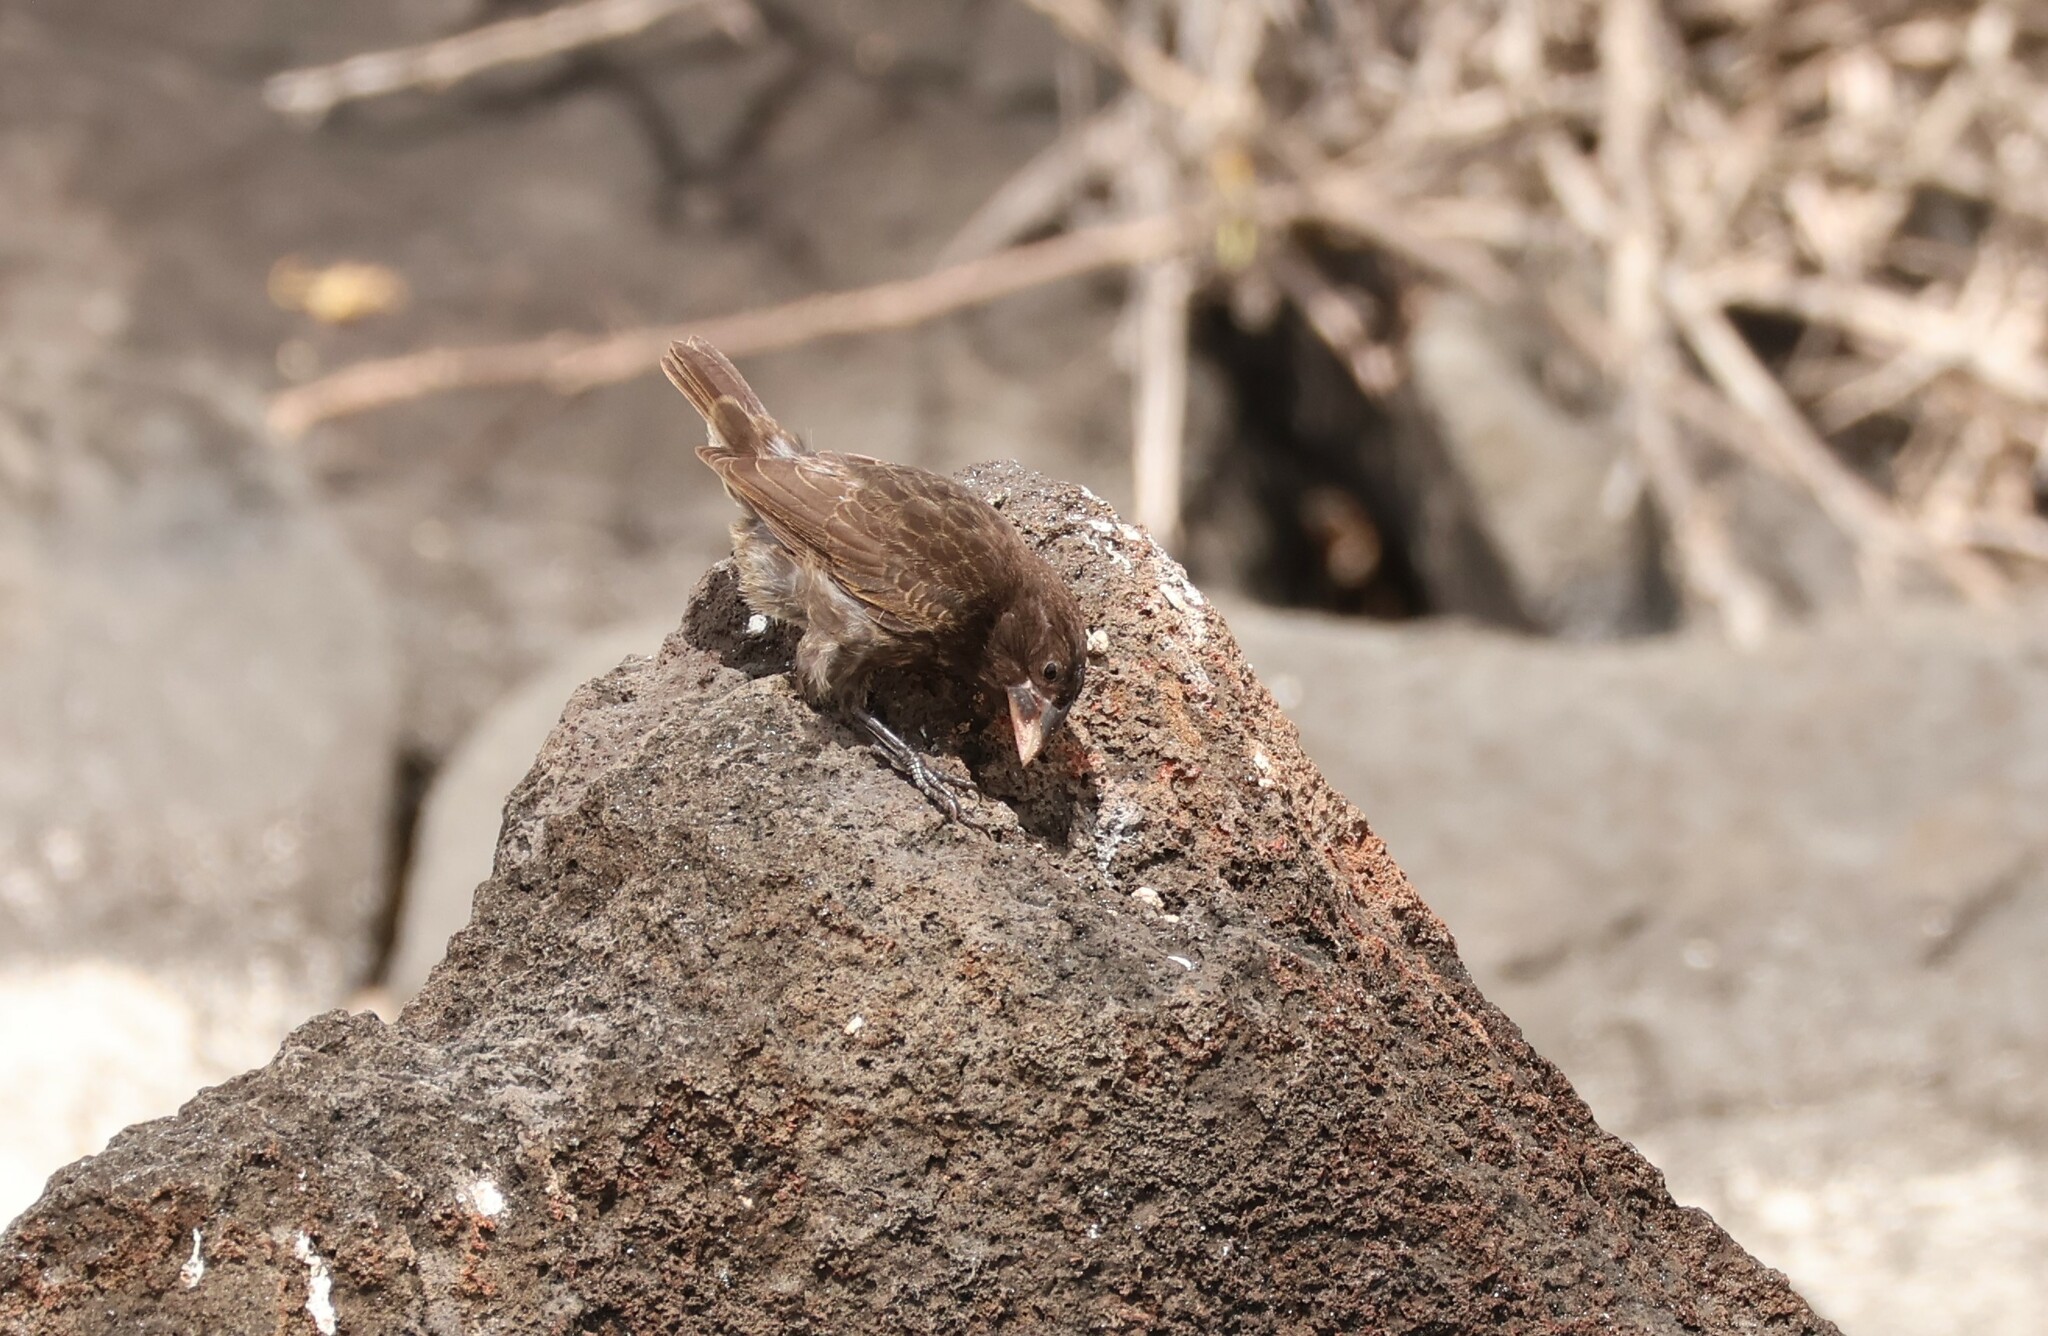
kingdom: Animalia
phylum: Chordata
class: Aves
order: Passeriformes
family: Thraupidae
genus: Geospiza
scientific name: Geospiza conirostris
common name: Large cactus finch
